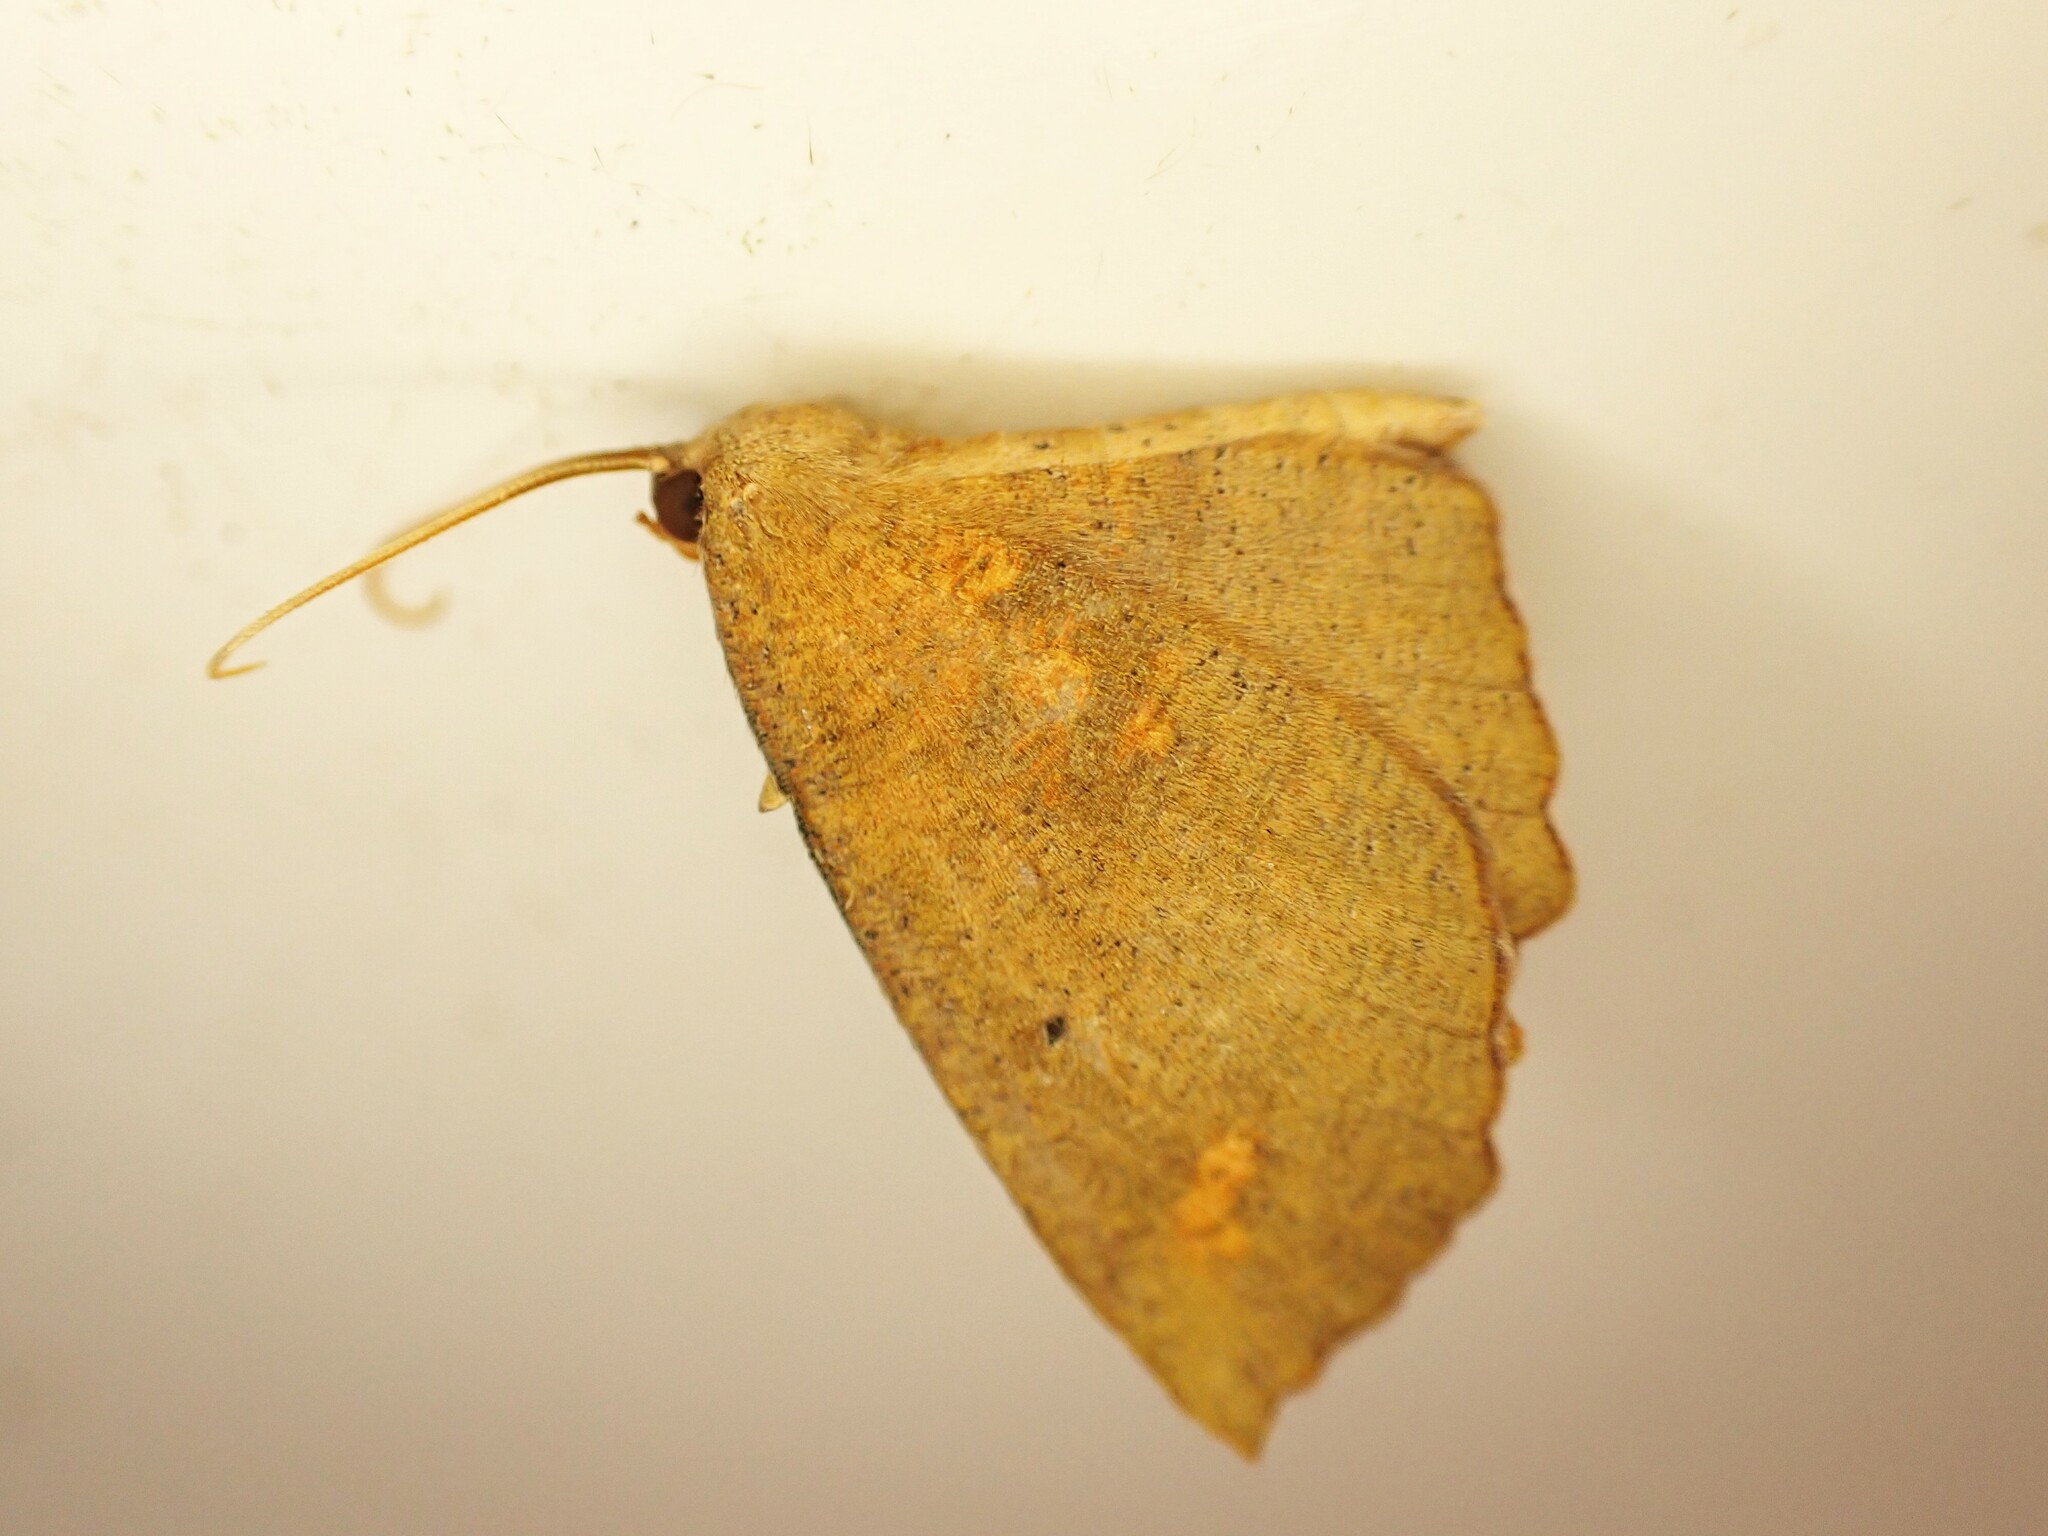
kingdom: Animalia
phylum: Arthropoda
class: Insecta
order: Lepidoptera
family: Geometridae
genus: Xyridacma
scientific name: Xyridacma ustaria
